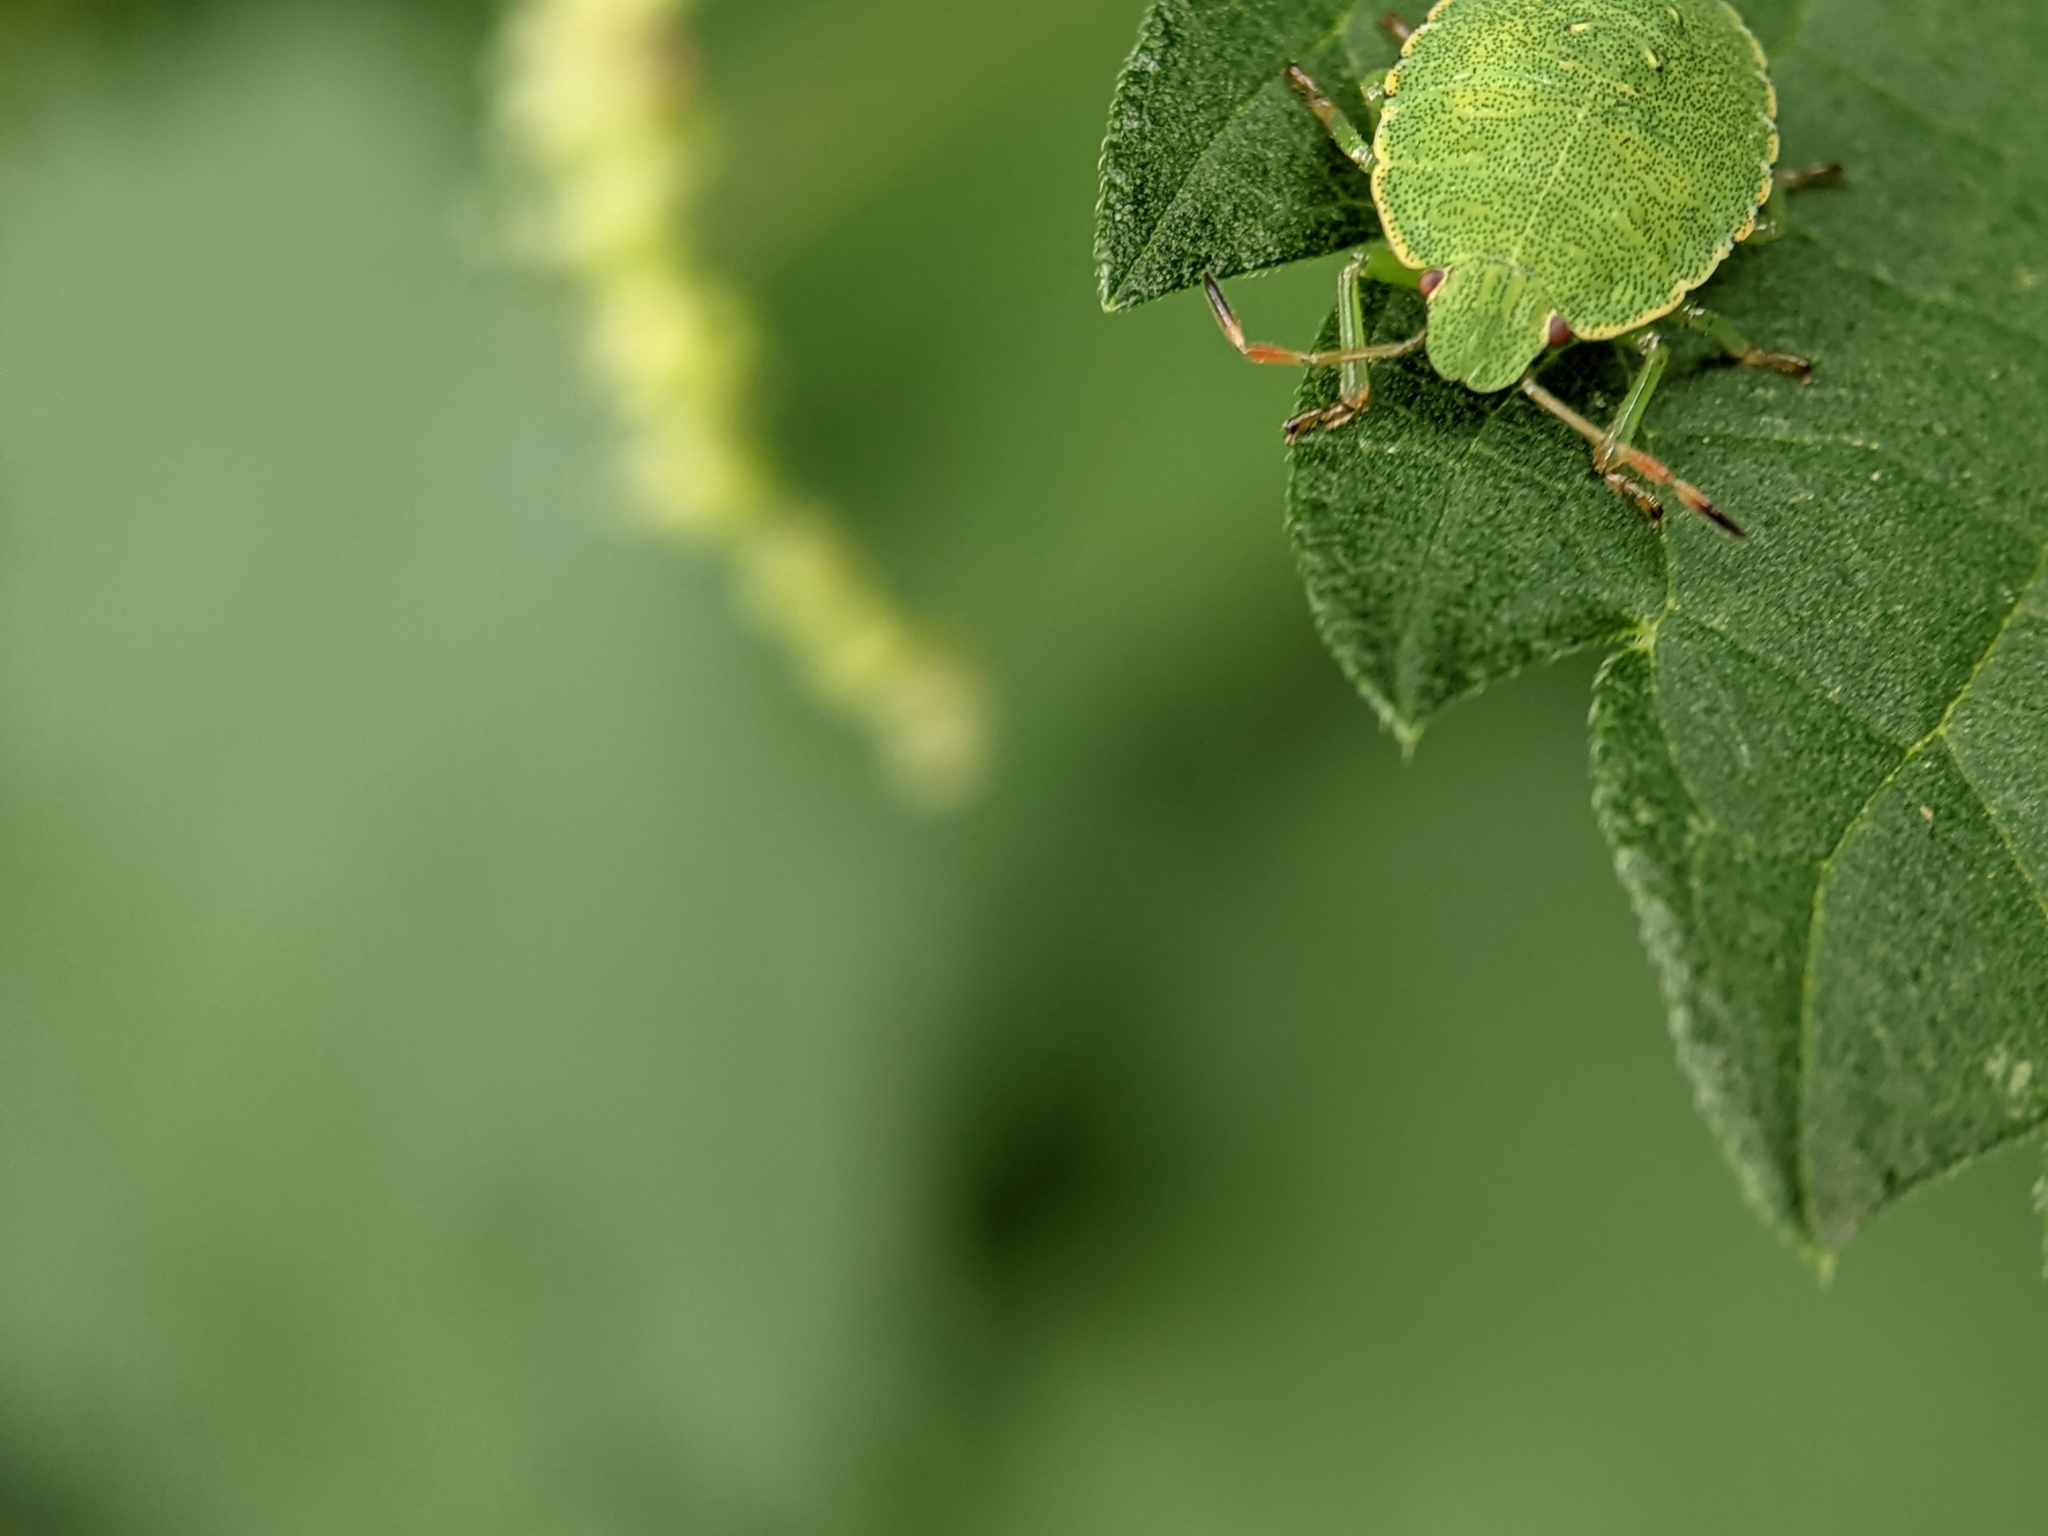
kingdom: Animalia
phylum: Arthropoda
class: Insecta
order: Hemiptera
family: Pentatomidae
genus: Palomena
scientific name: Palomena prasina
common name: Green shieldbug
